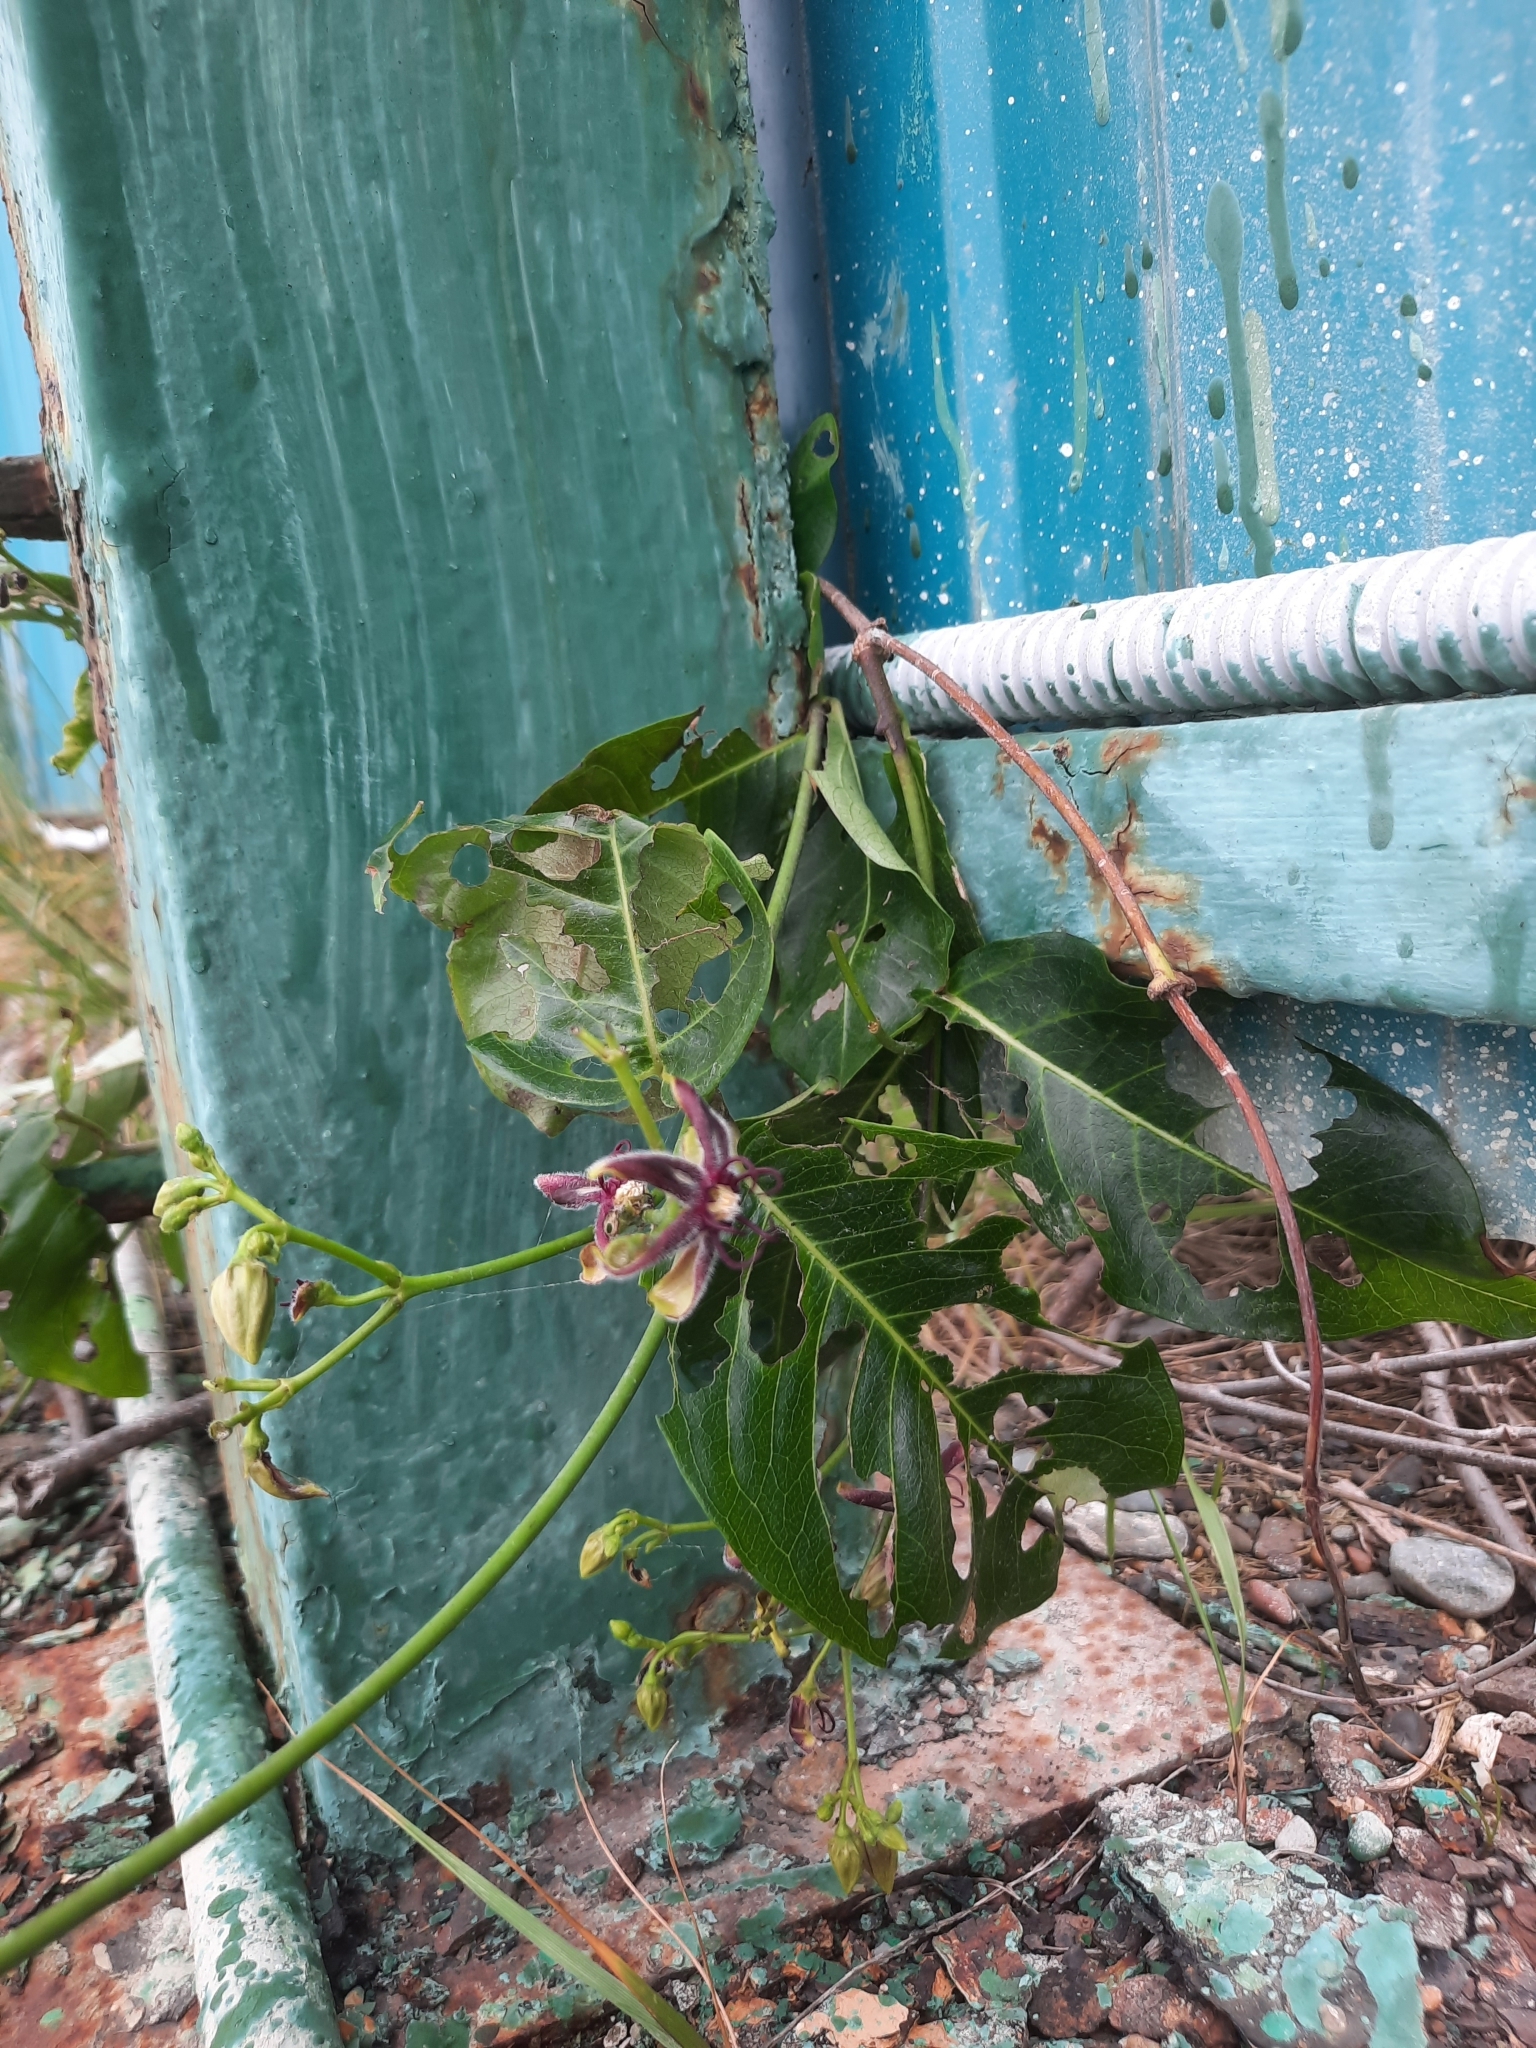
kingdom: Plantae
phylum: Tracheophyta
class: Magnoliopsida
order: Gentianales
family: Apocynaceae
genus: Periploca
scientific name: Periploca graeca
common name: Silkvine
